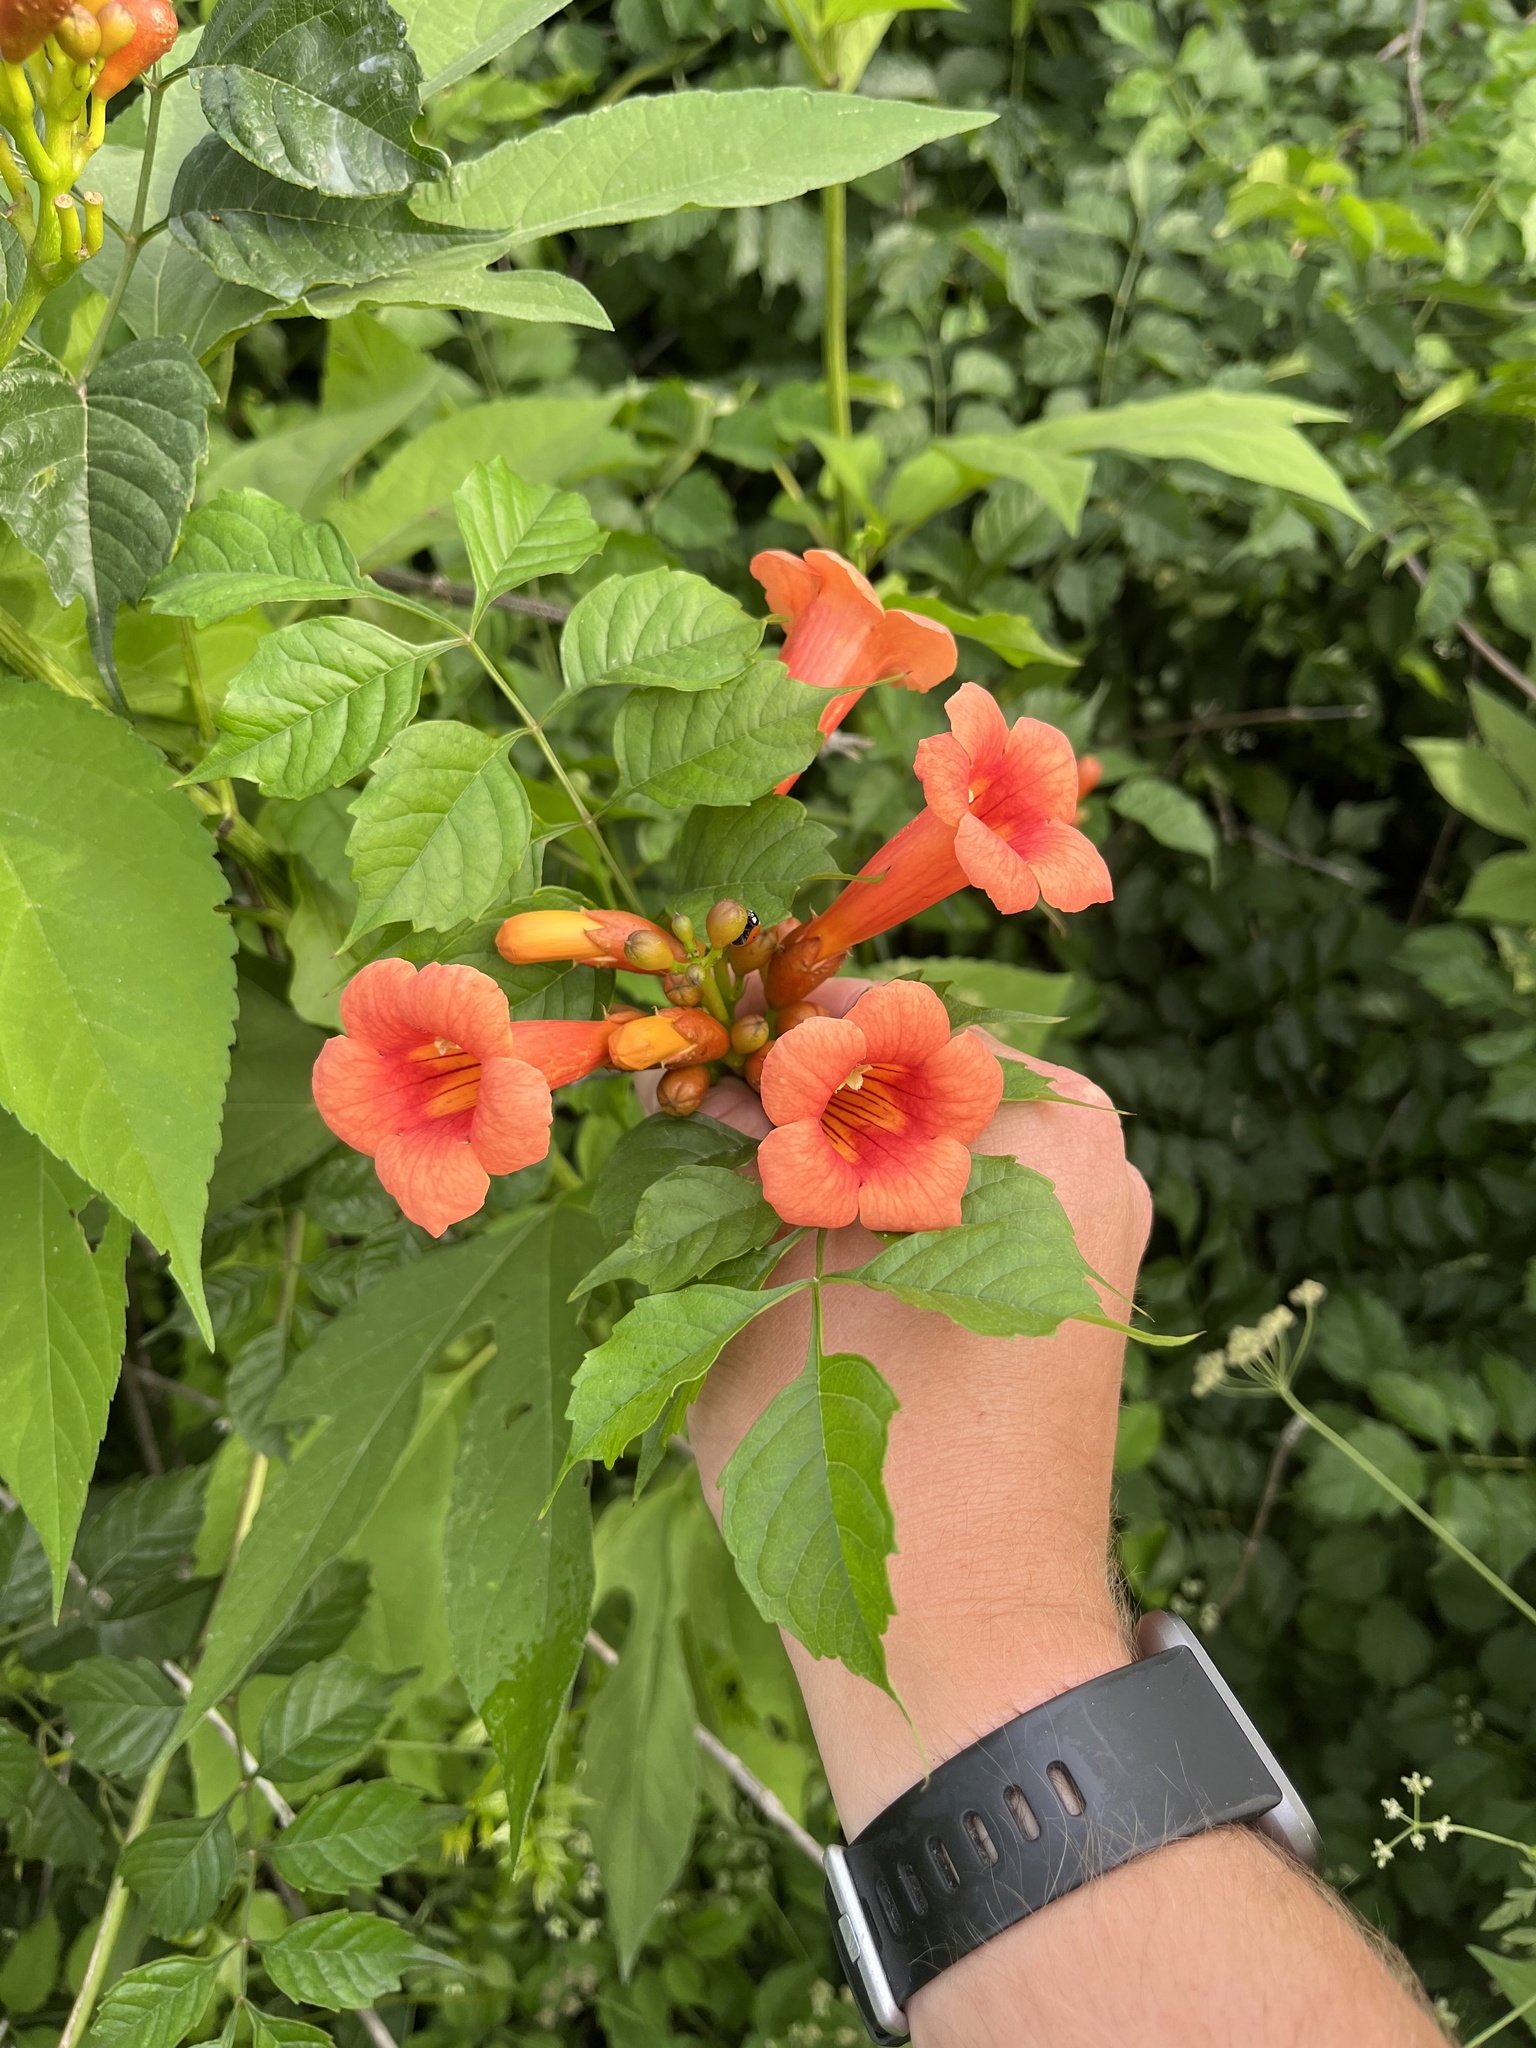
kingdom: Plantae
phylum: Tracheophyta
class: Magnoliopsida
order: Lamiales
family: Bignoniaceae
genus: Campsis
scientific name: Campsis radicans
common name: Trumpet-creeper
